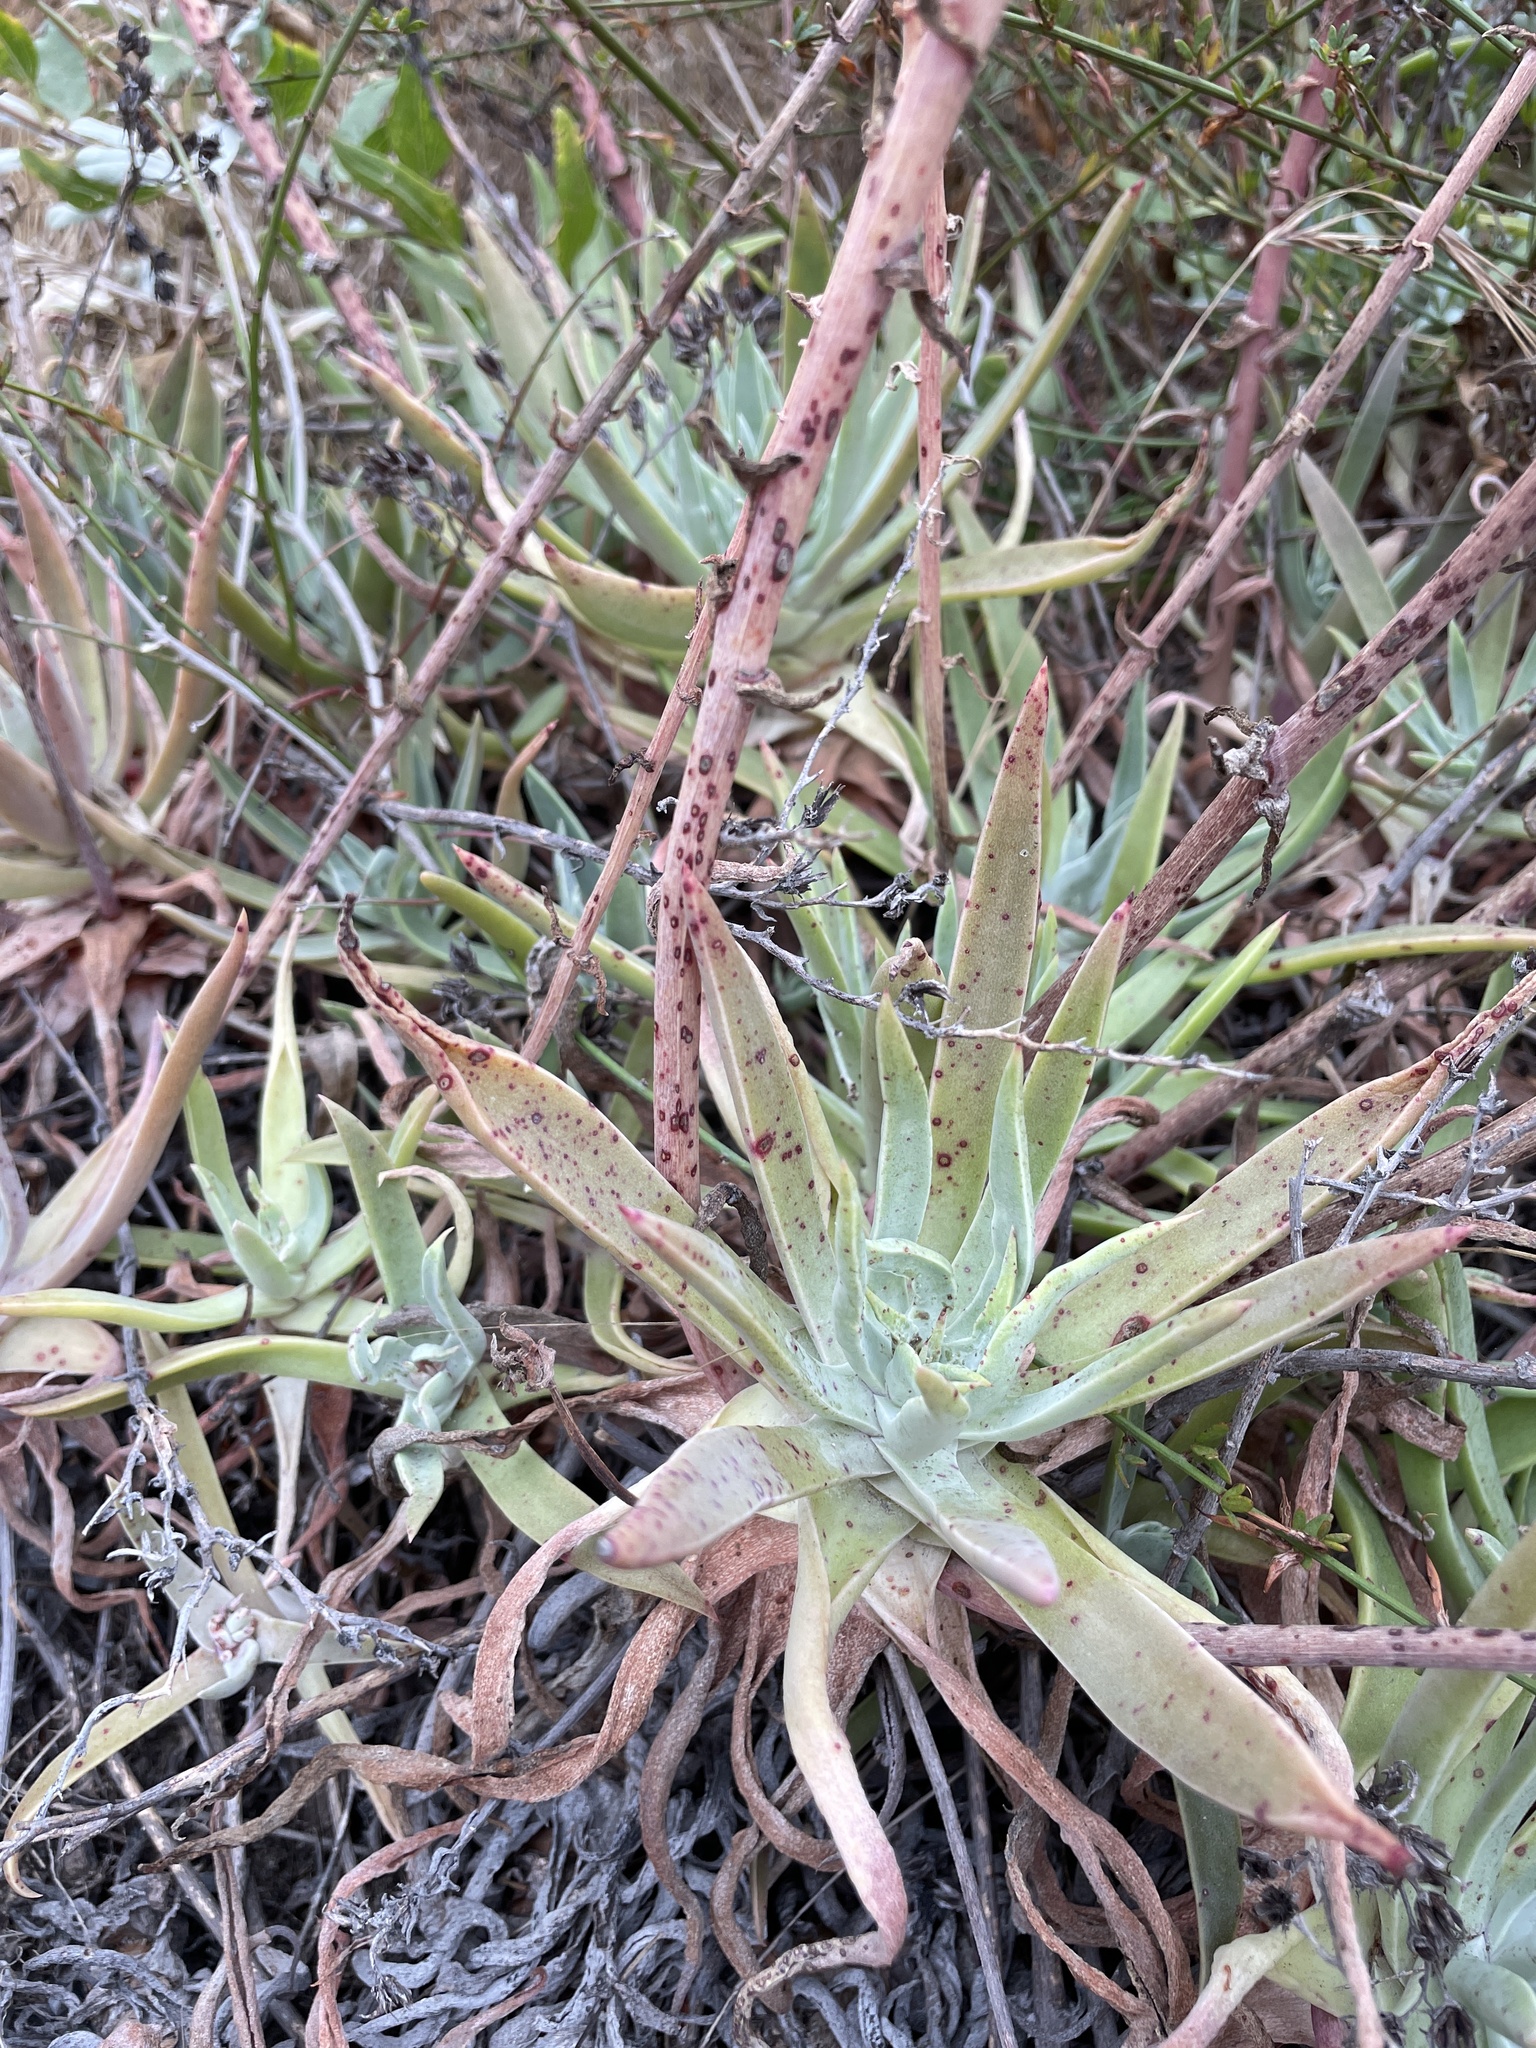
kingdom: Plantae
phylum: Tracheophyta
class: Magnoliopsida
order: Saxifragales
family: Crassulaceae
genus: Dudleya
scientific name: Dudleya lanceolata
